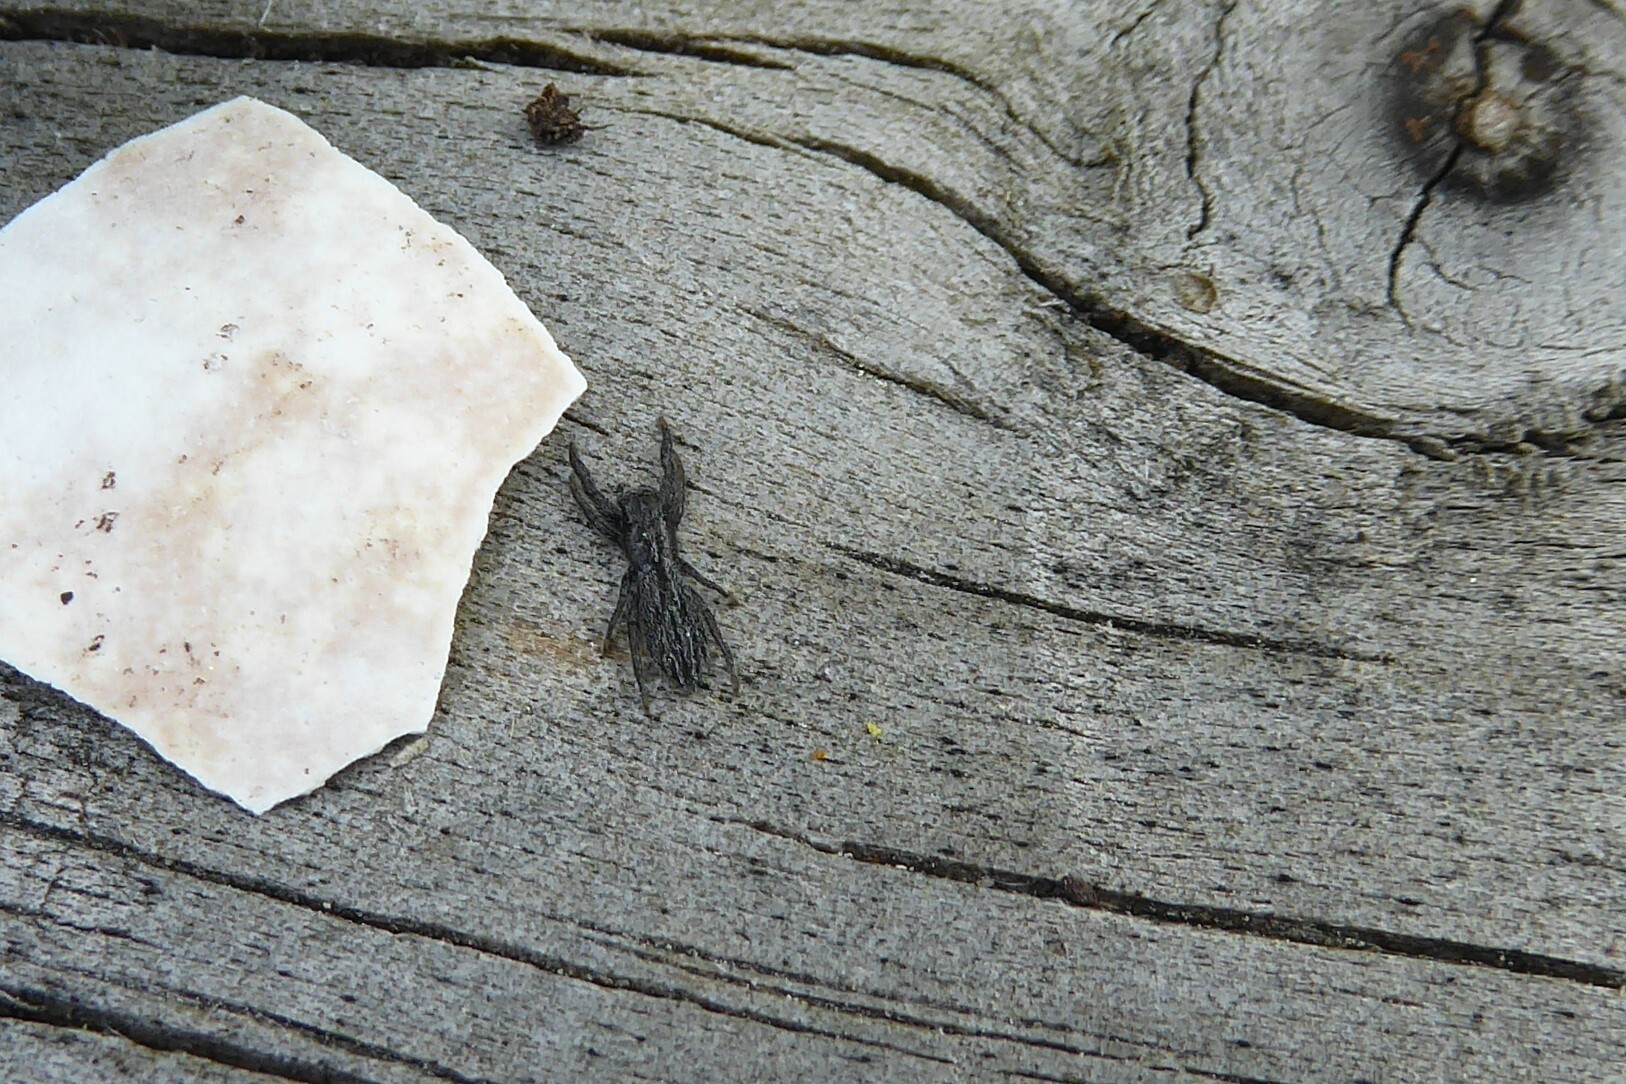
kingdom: Animalia
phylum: Arthropoda
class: Arachnida
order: Araneae
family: Salticidae
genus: Holoplatys
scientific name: Holoplatys apressus
